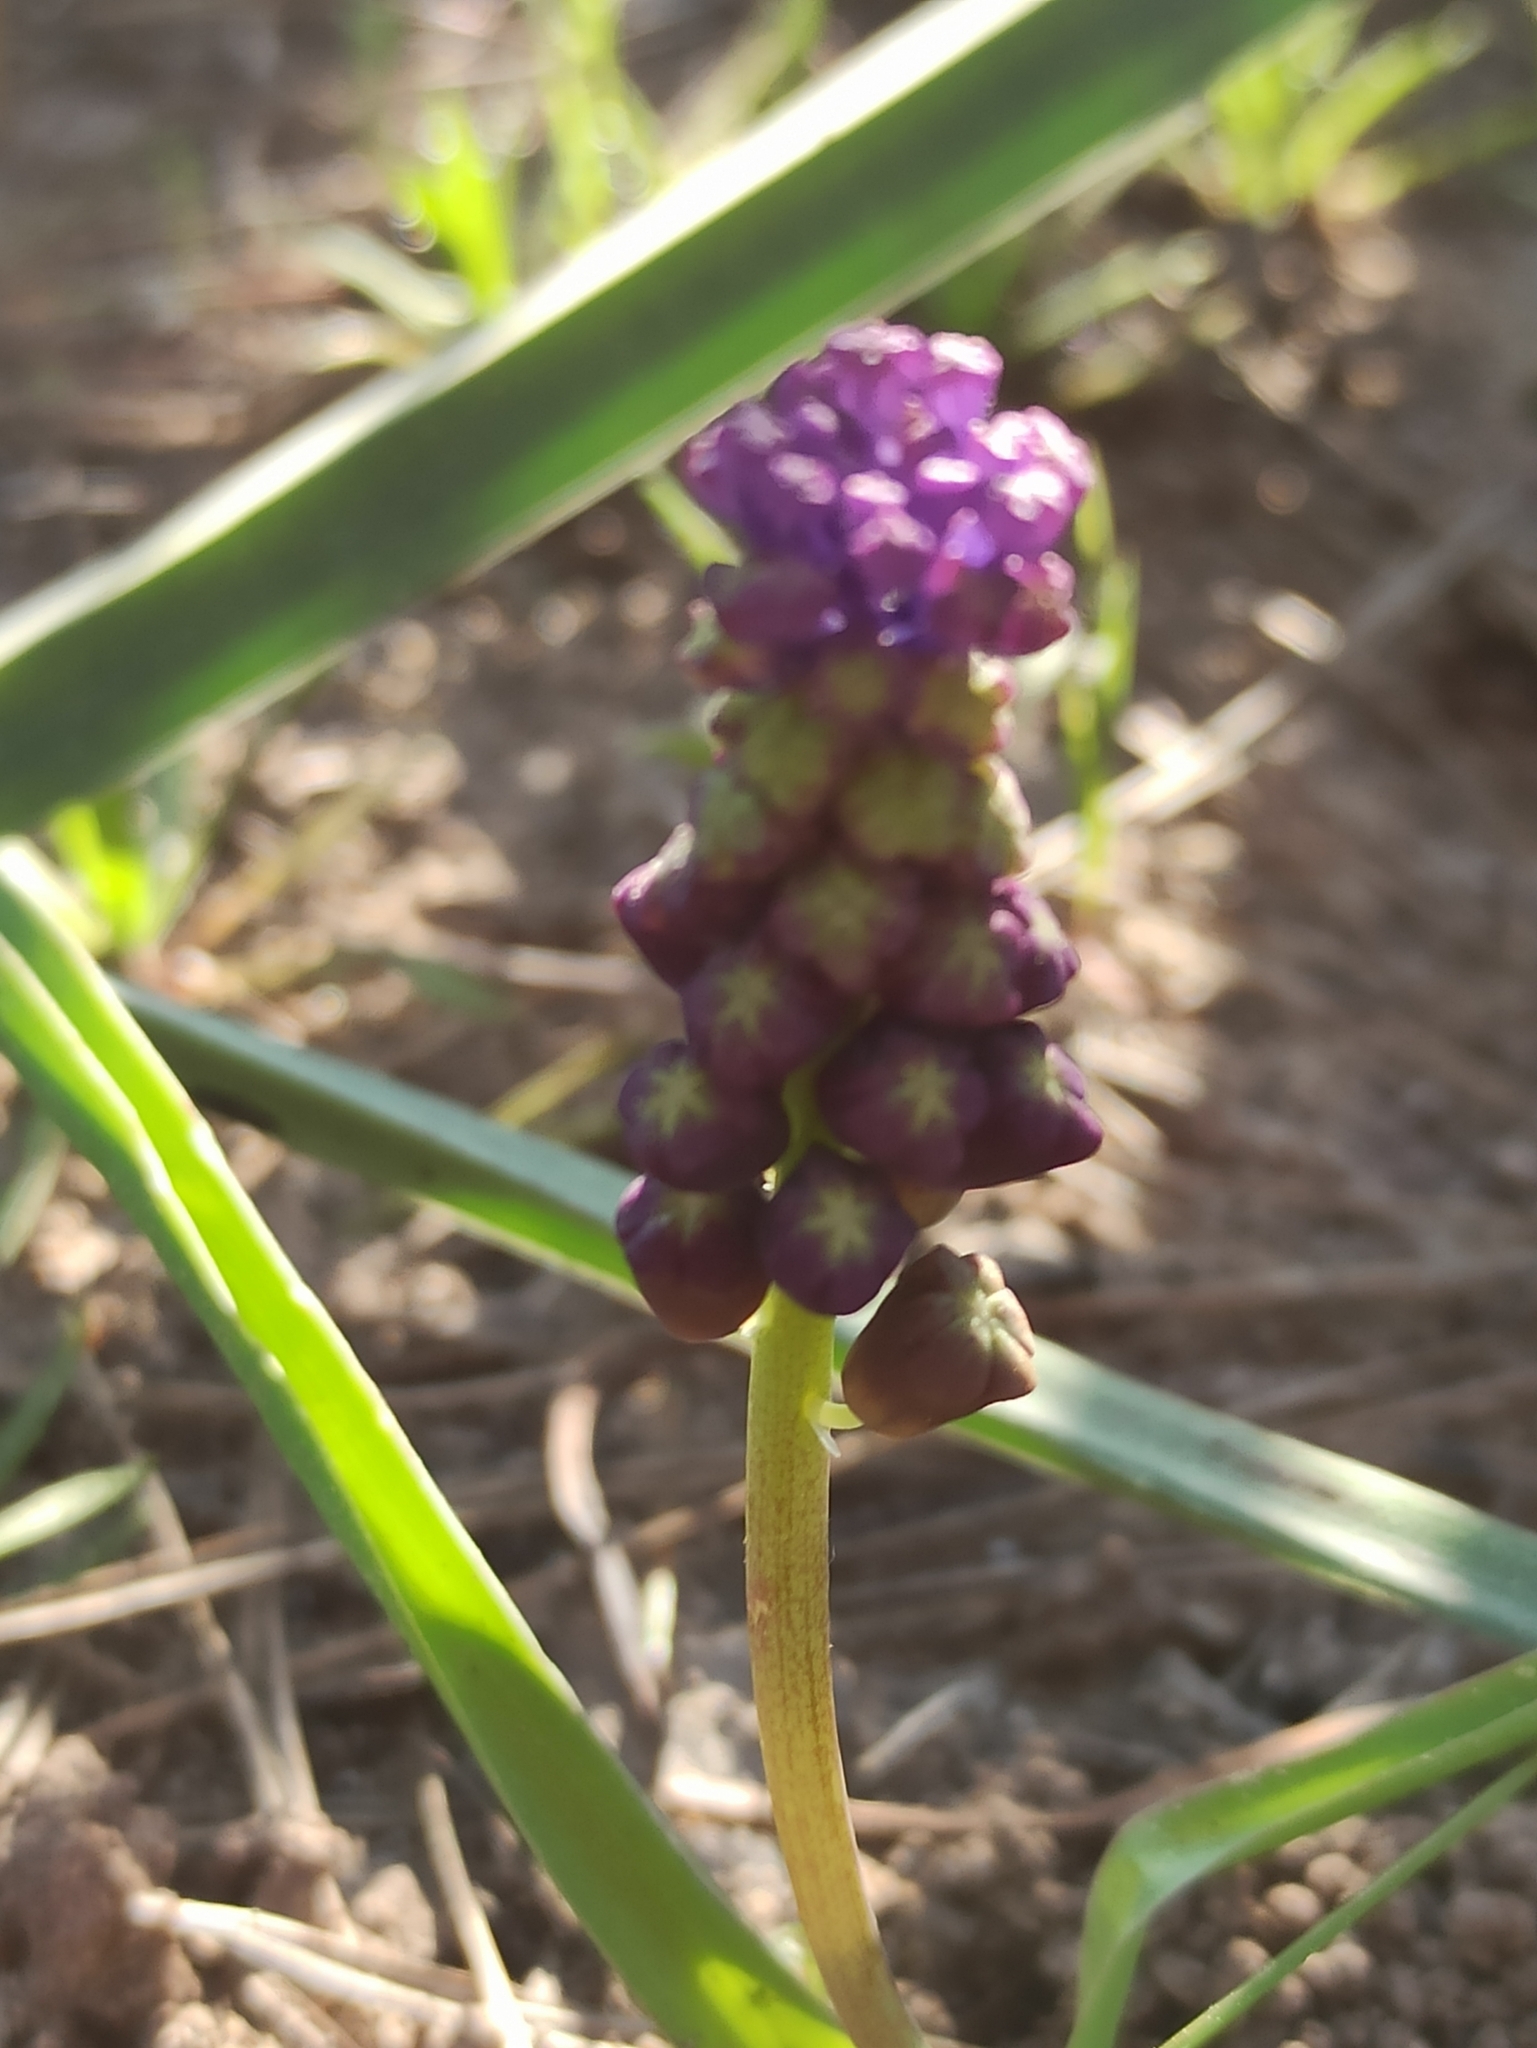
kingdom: Plantae
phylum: Tracheophyta
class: Liliopsida
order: Asparagales
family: Asparagaceae
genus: Muscari
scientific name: Muscari comosum
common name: Tassel hyacinth
